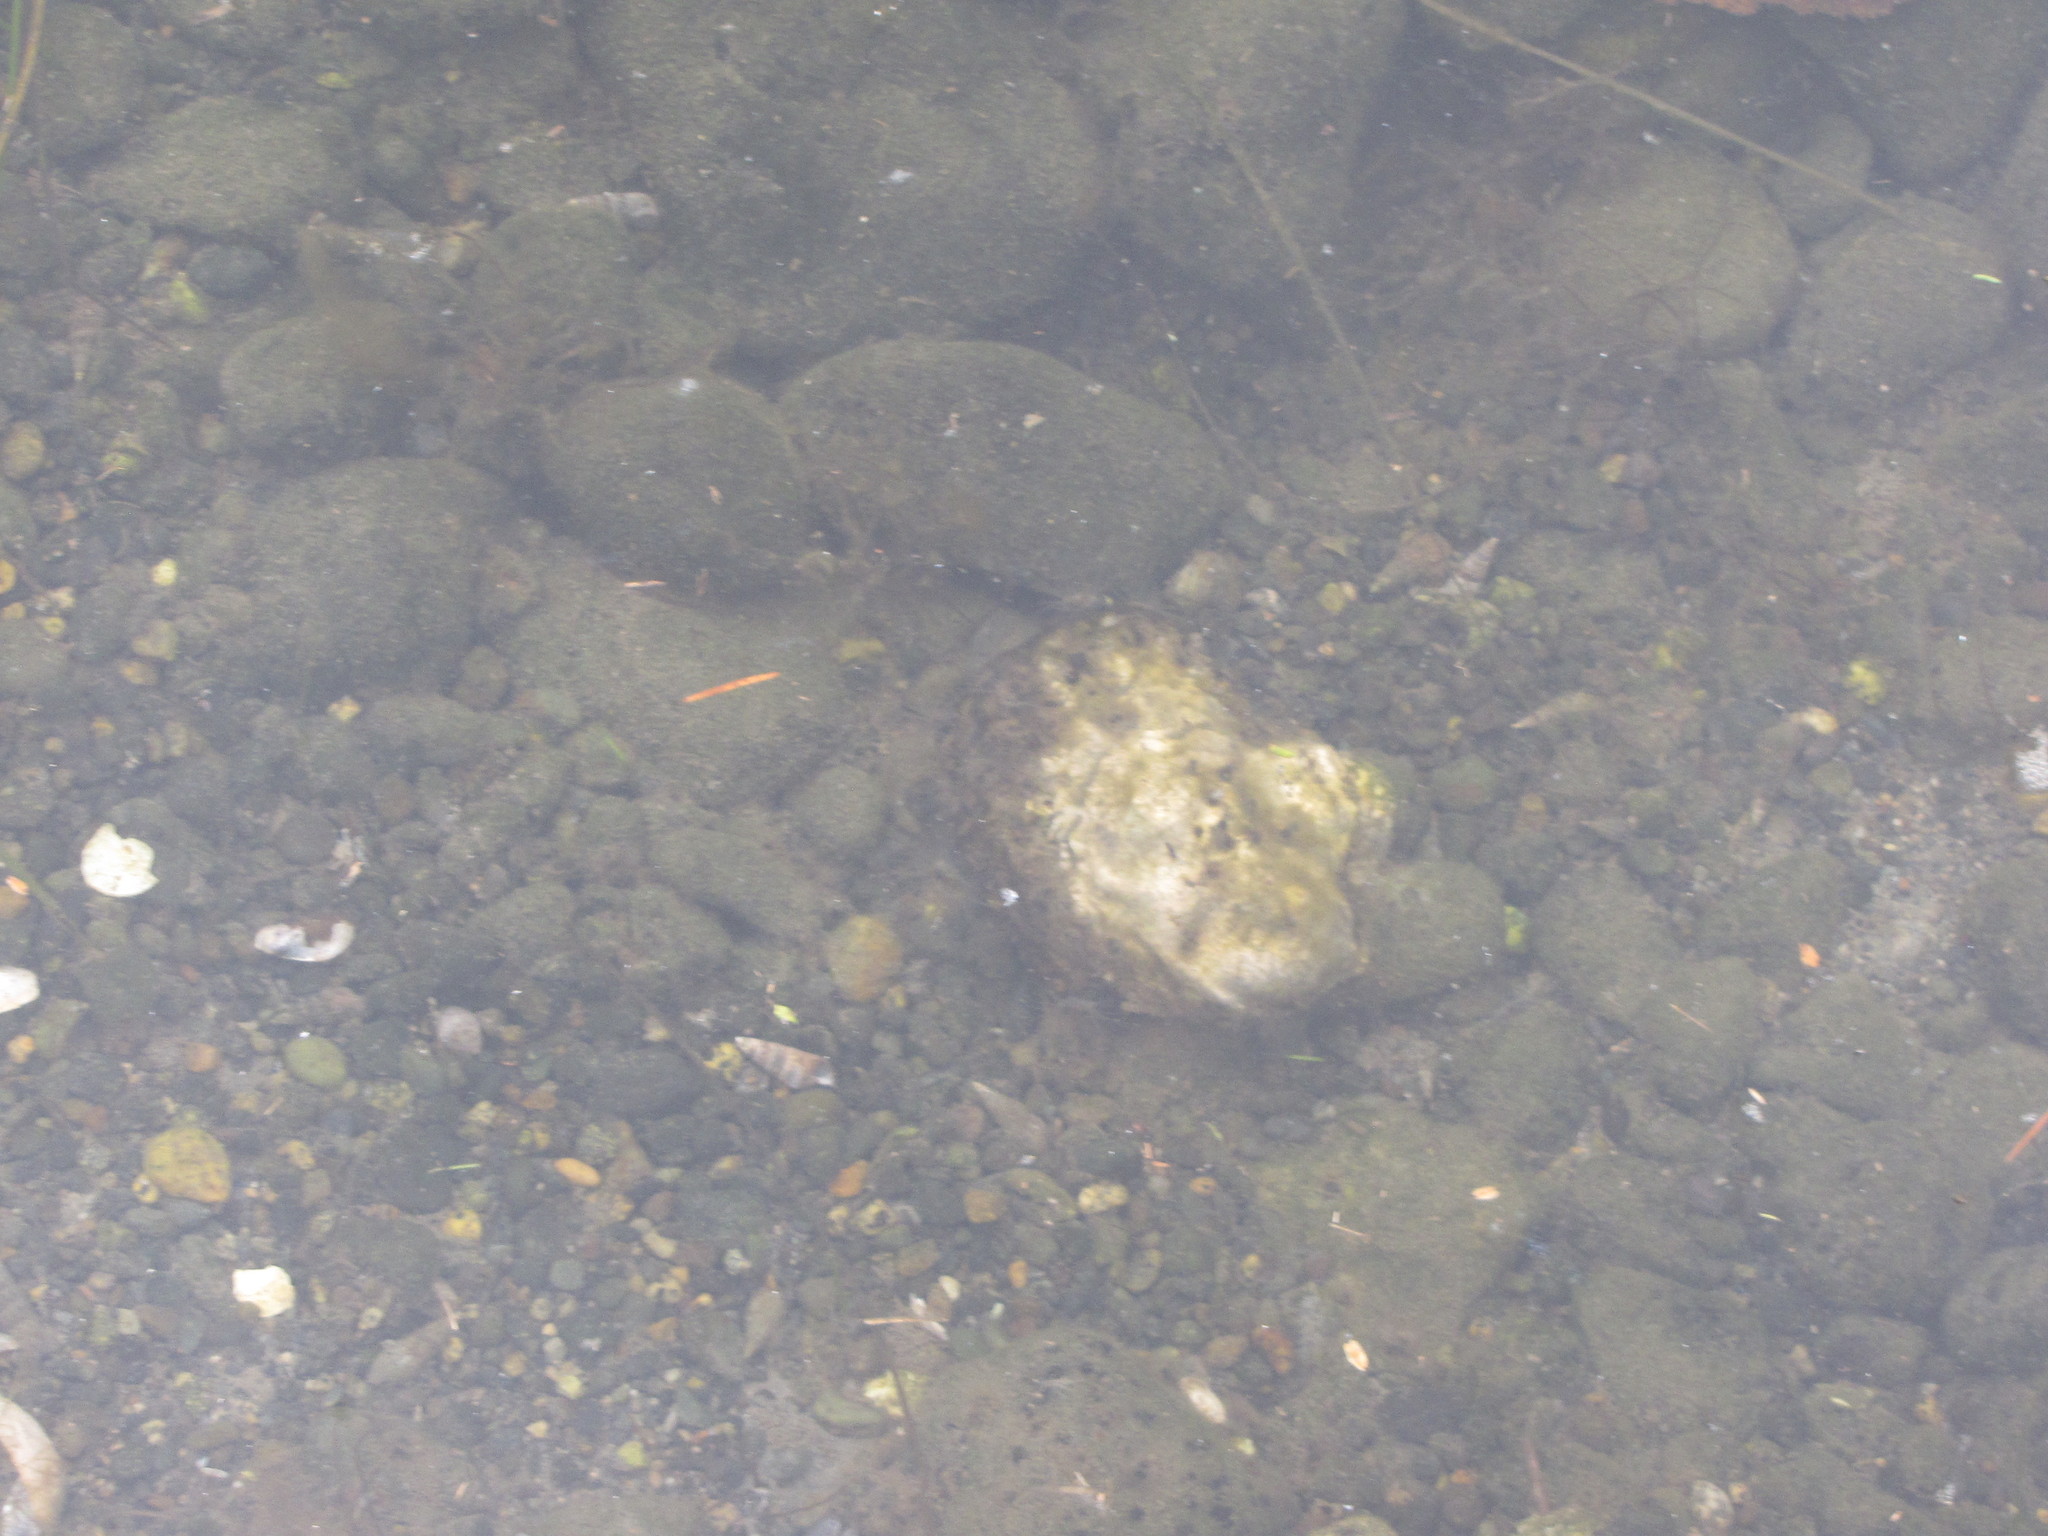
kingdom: Animalia
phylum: Mollusca
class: Bivalvia
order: Ostreida
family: Ostreidae
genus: Magallana
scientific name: Magallana gigas
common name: Pacific oyster
